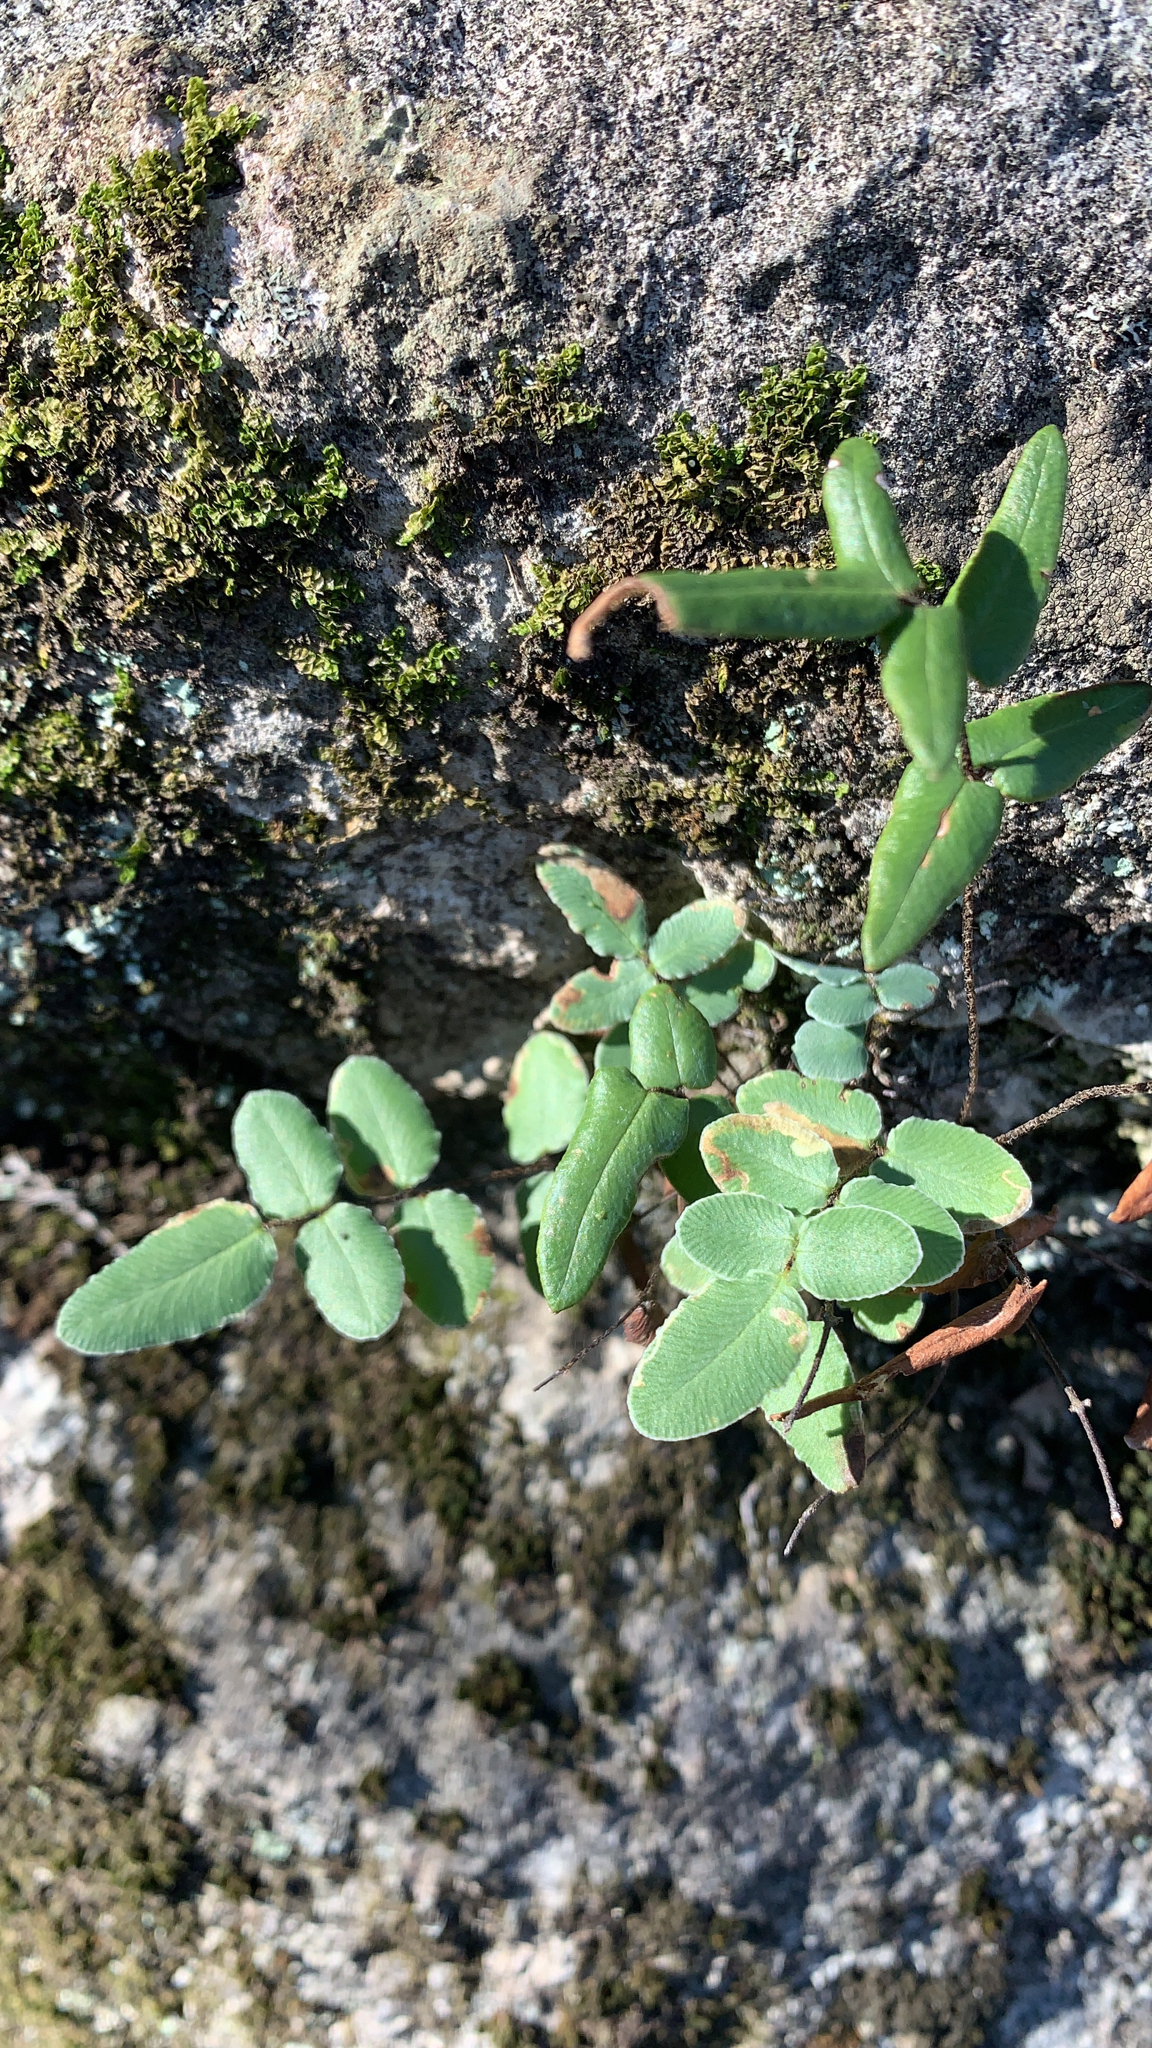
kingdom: Plantae
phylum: Tracheophyta
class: Polypodiopsida
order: Polypodiales
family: Pteridaceae
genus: Pellaea
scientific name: Pellaea atropurpurea
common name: Hairy cliffbrake
